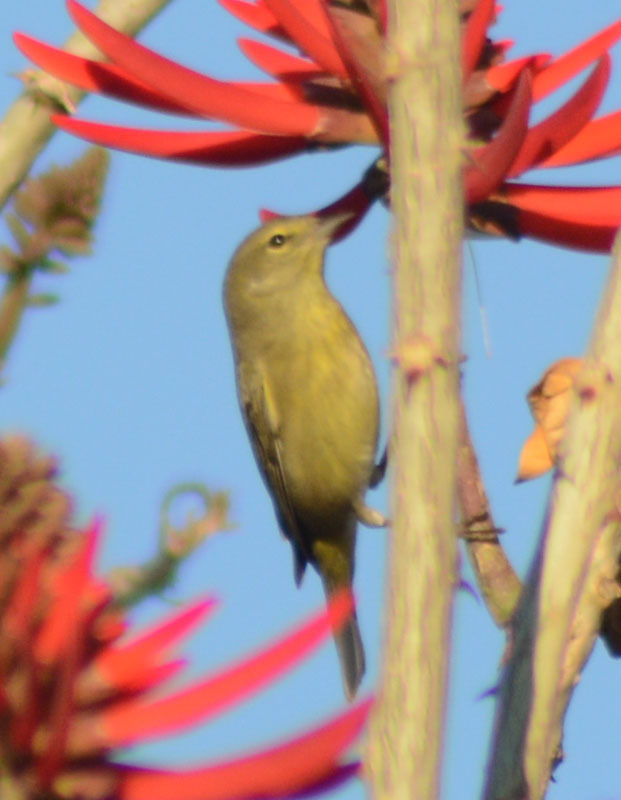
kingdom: Animalia
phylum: Chordata
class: Aves
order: Passeriformes
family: Parulidae
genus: Leiothlypis
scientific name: Leiothlypis celata
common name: Orange-crowned warbler
